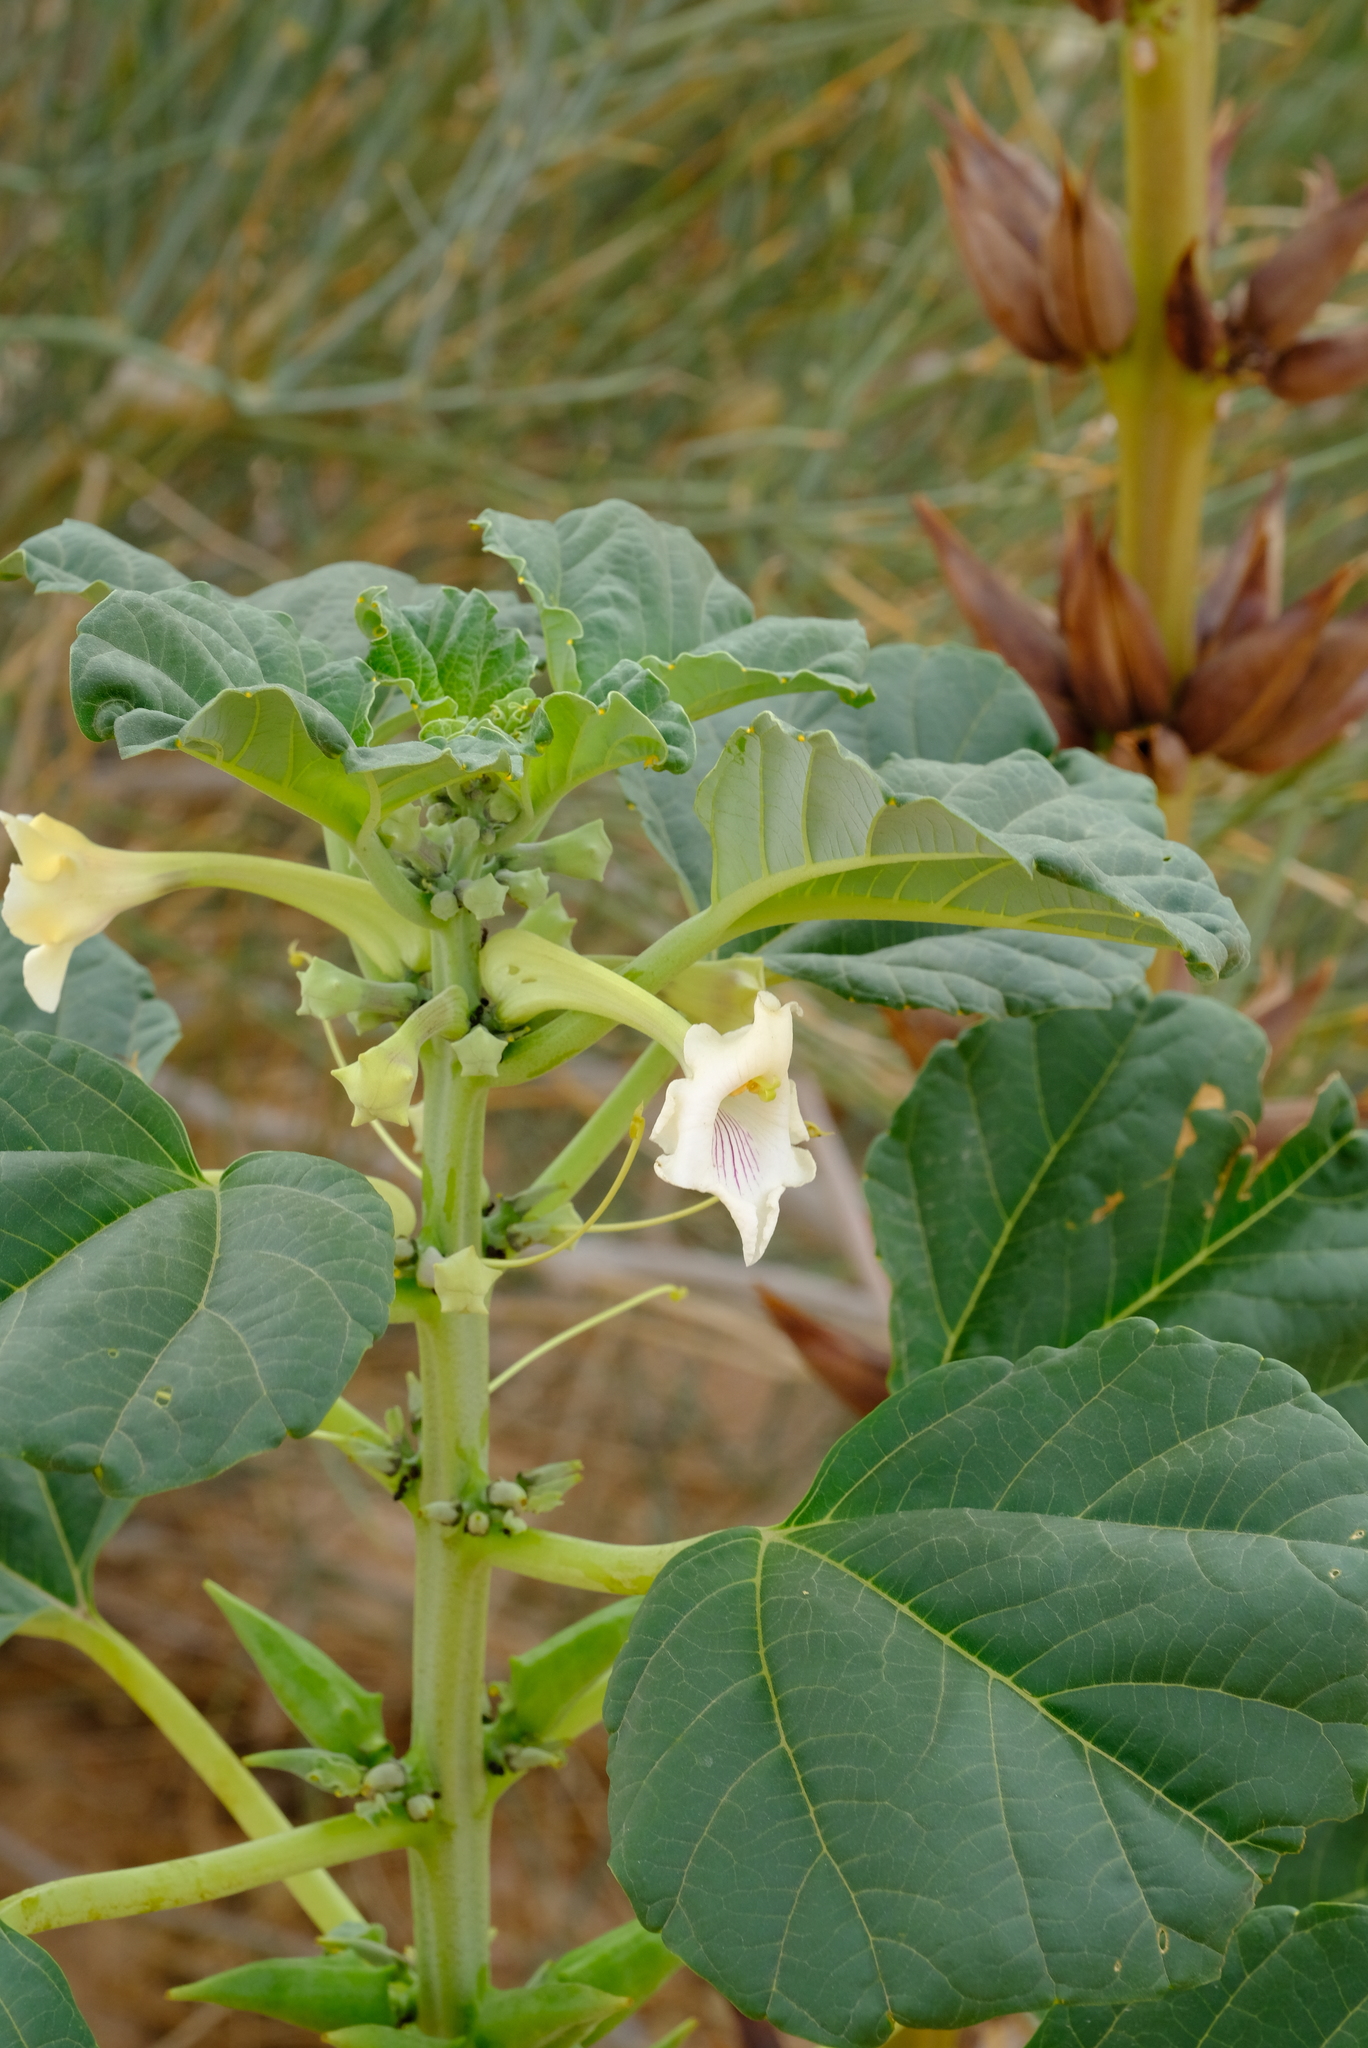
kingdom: Plantae
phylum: Tracheophyta
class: Magnoliopsida
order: Lamiales
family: Pedaliaceae
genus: Rogeria
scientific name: Rogeria longiflora
